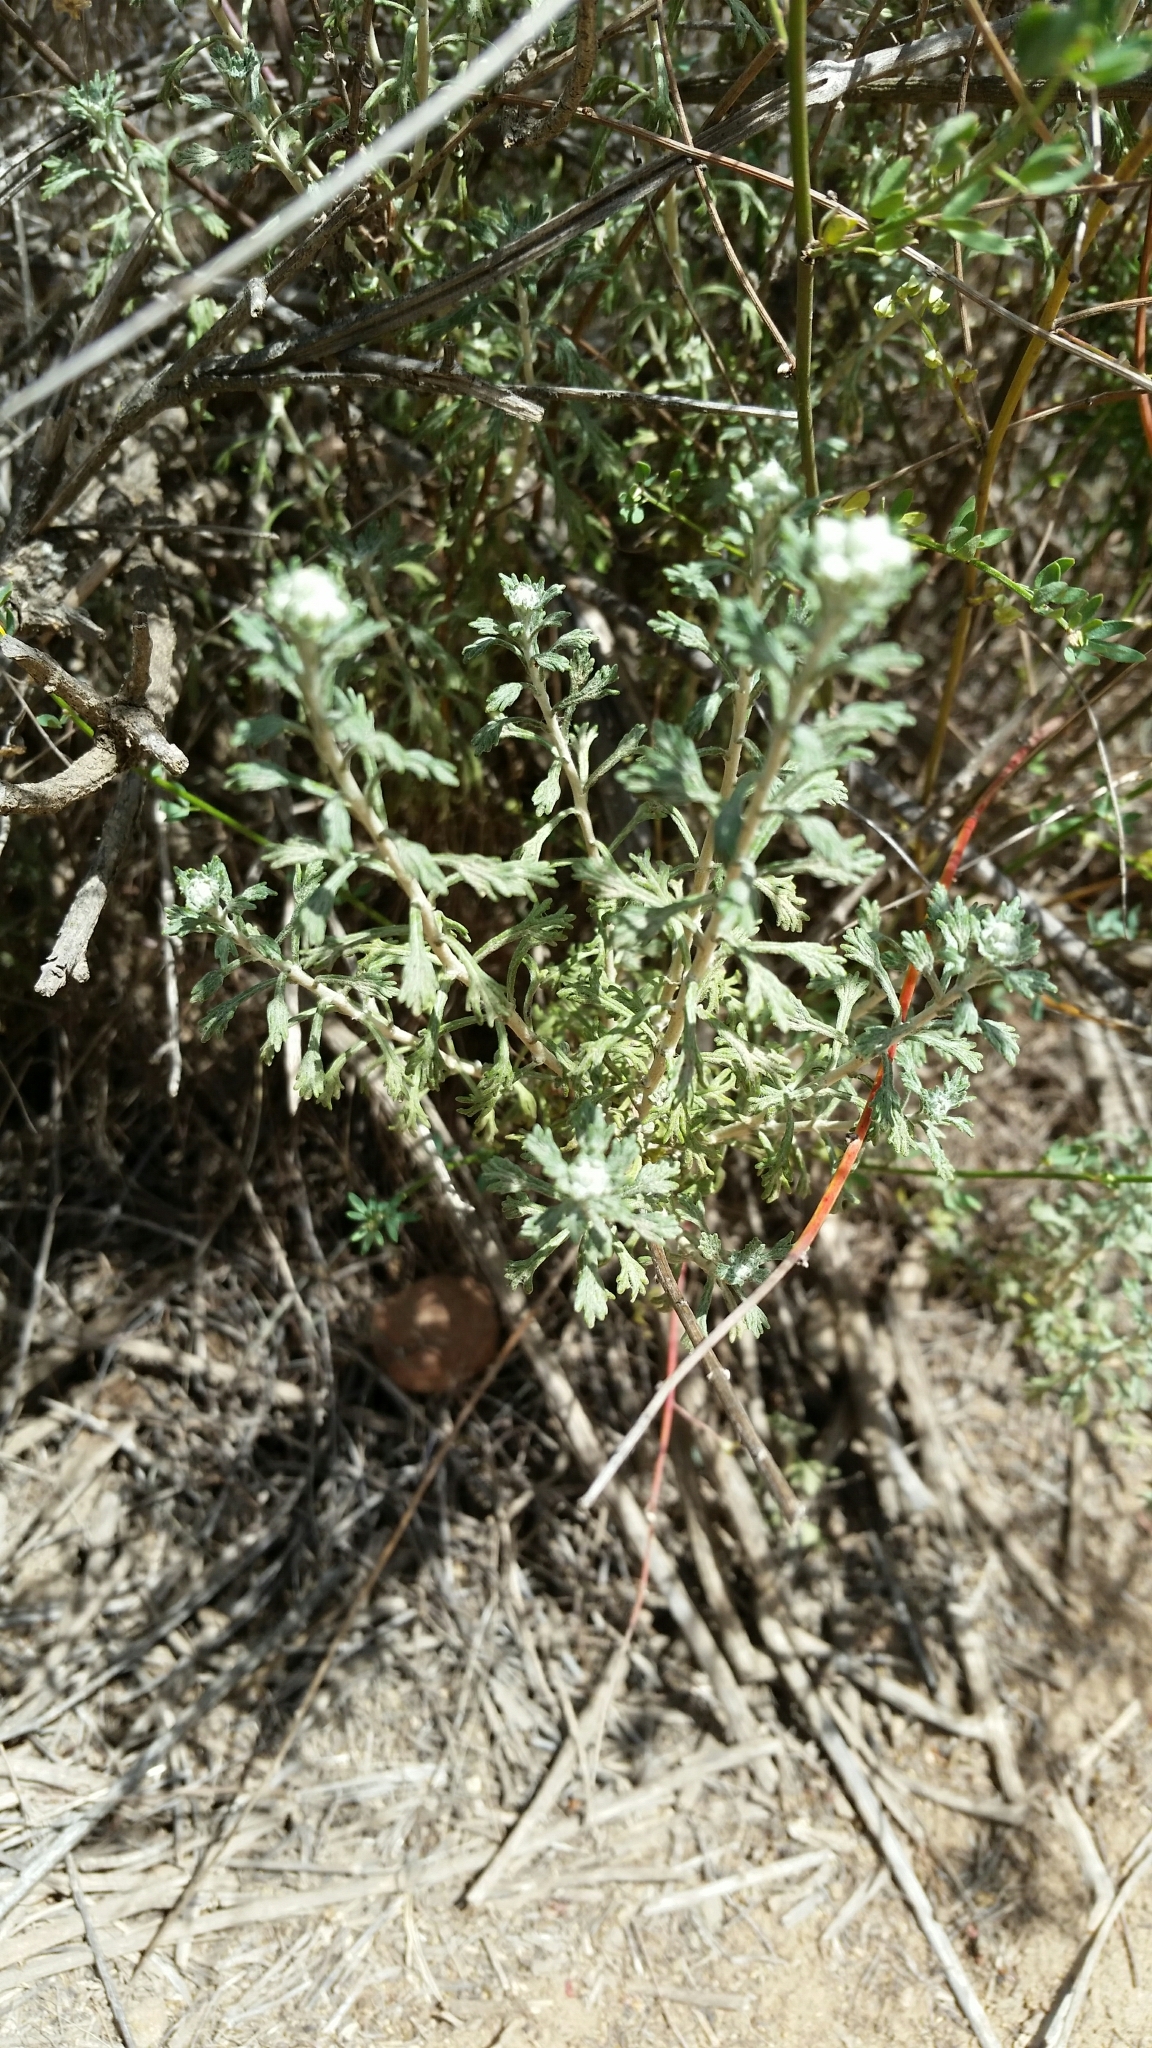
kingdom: Plantae
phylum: Tracheophyta
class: Magnoliopsida
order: Asterales
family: Asteraceae
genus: Eriophyllum
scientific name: Eriophyllum confertiflorum
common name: Golden-yarrow
